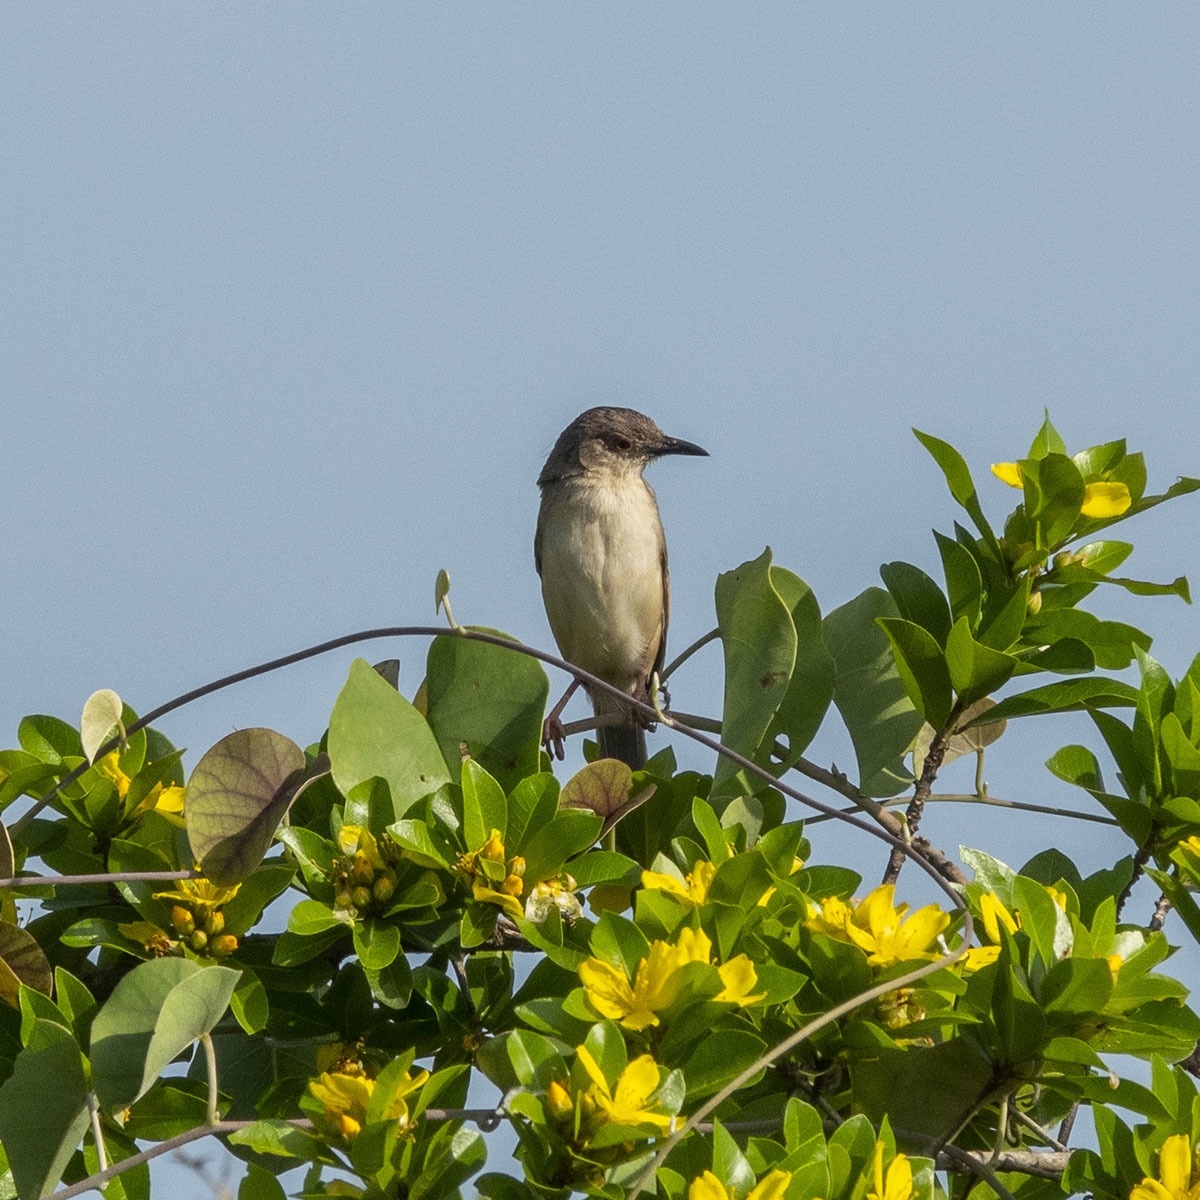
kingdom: Animalia
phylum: Chordata
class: Aves
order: Passeriformes
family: Cisticolidae
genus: Prinia
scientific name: Prinia sylvatica
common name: Jungle prinia
